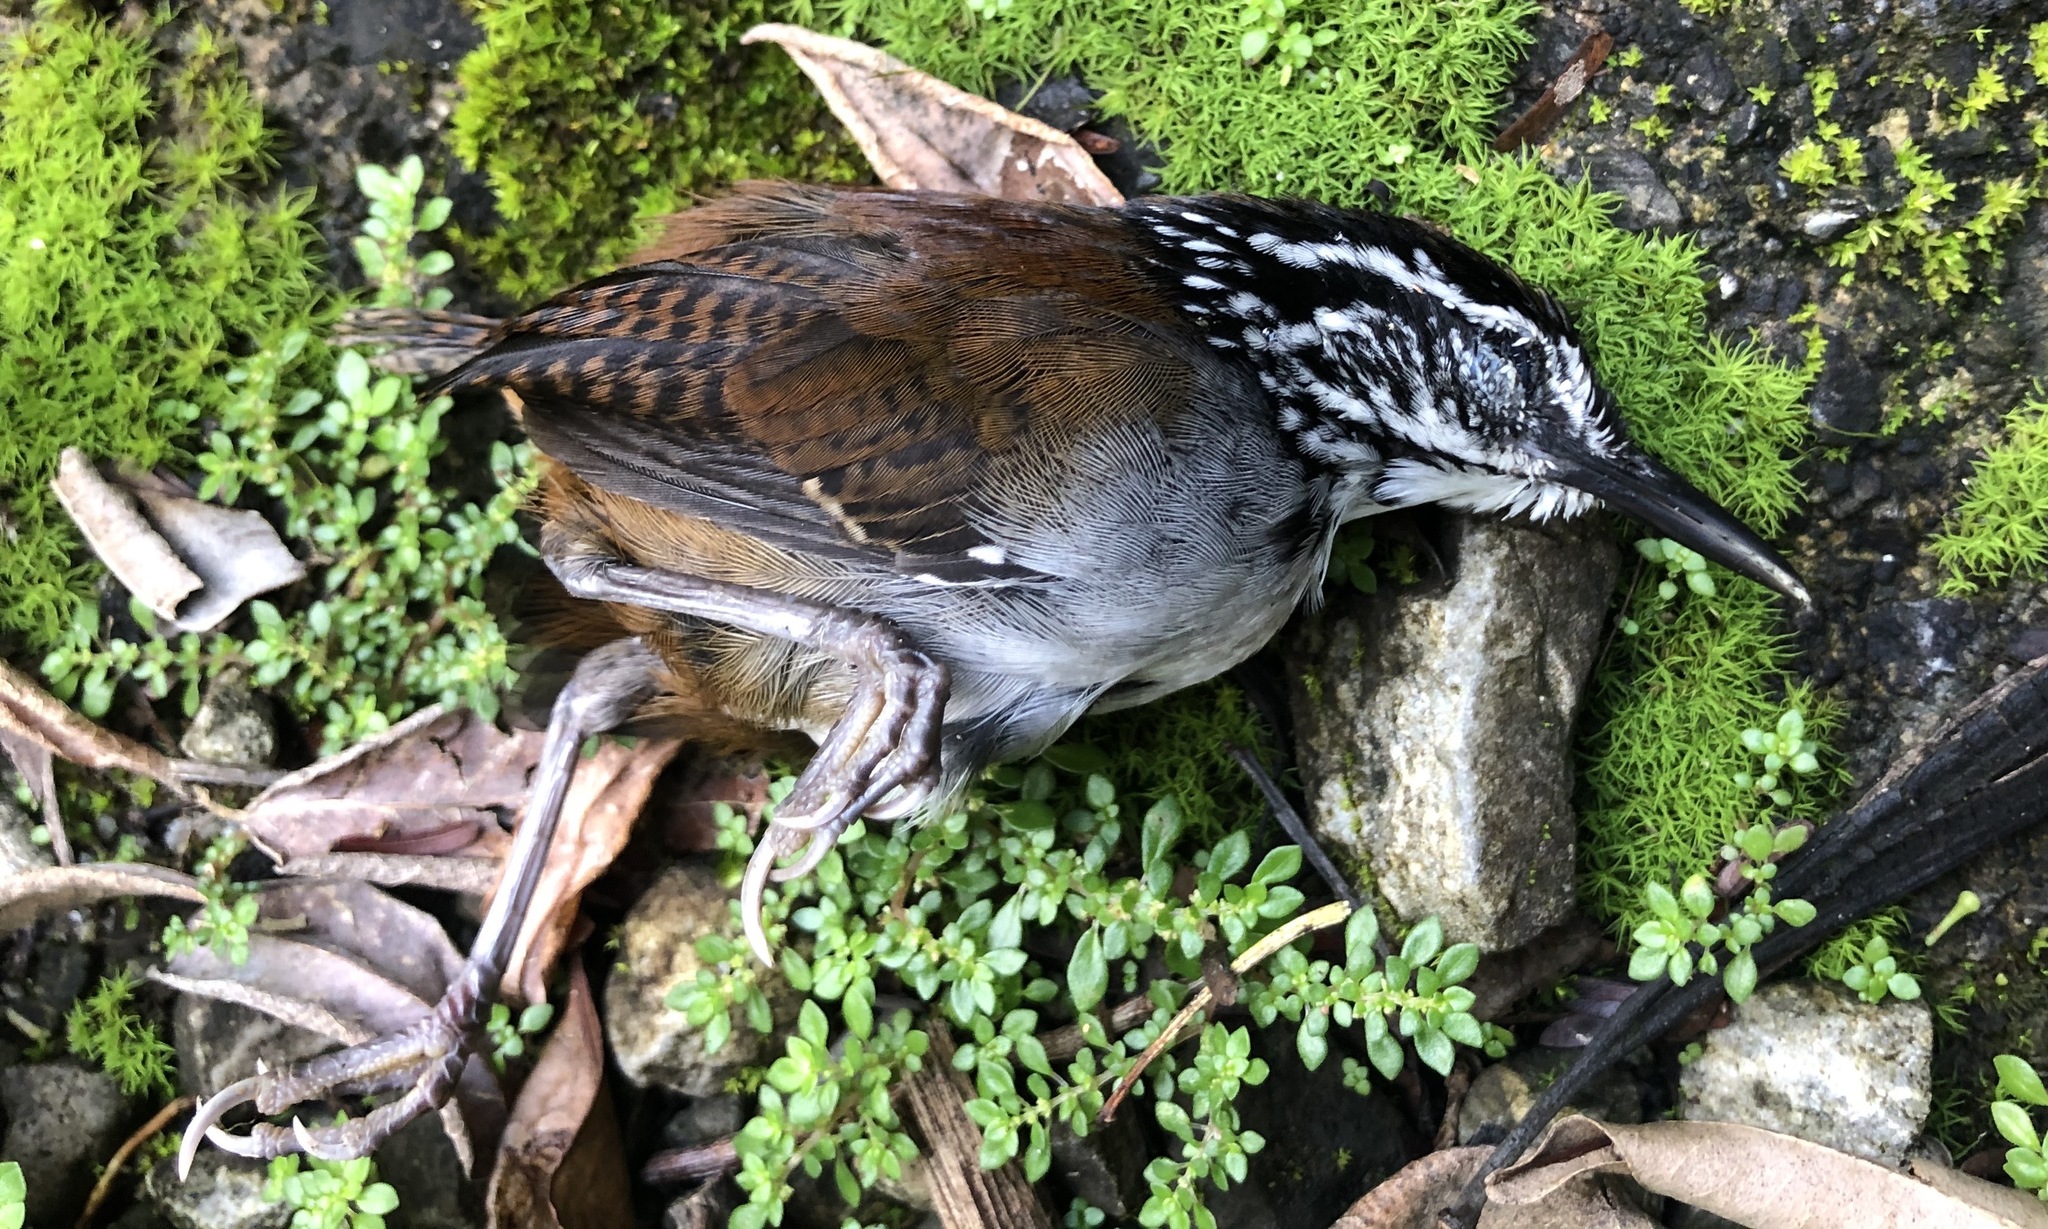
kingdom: Animalia
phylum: Chordata
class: Aves
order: Passeriformes
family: Troglodytidae
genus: Henicorhina
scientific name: Henicorhina leucosticta
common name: White-breasted wood-wren
